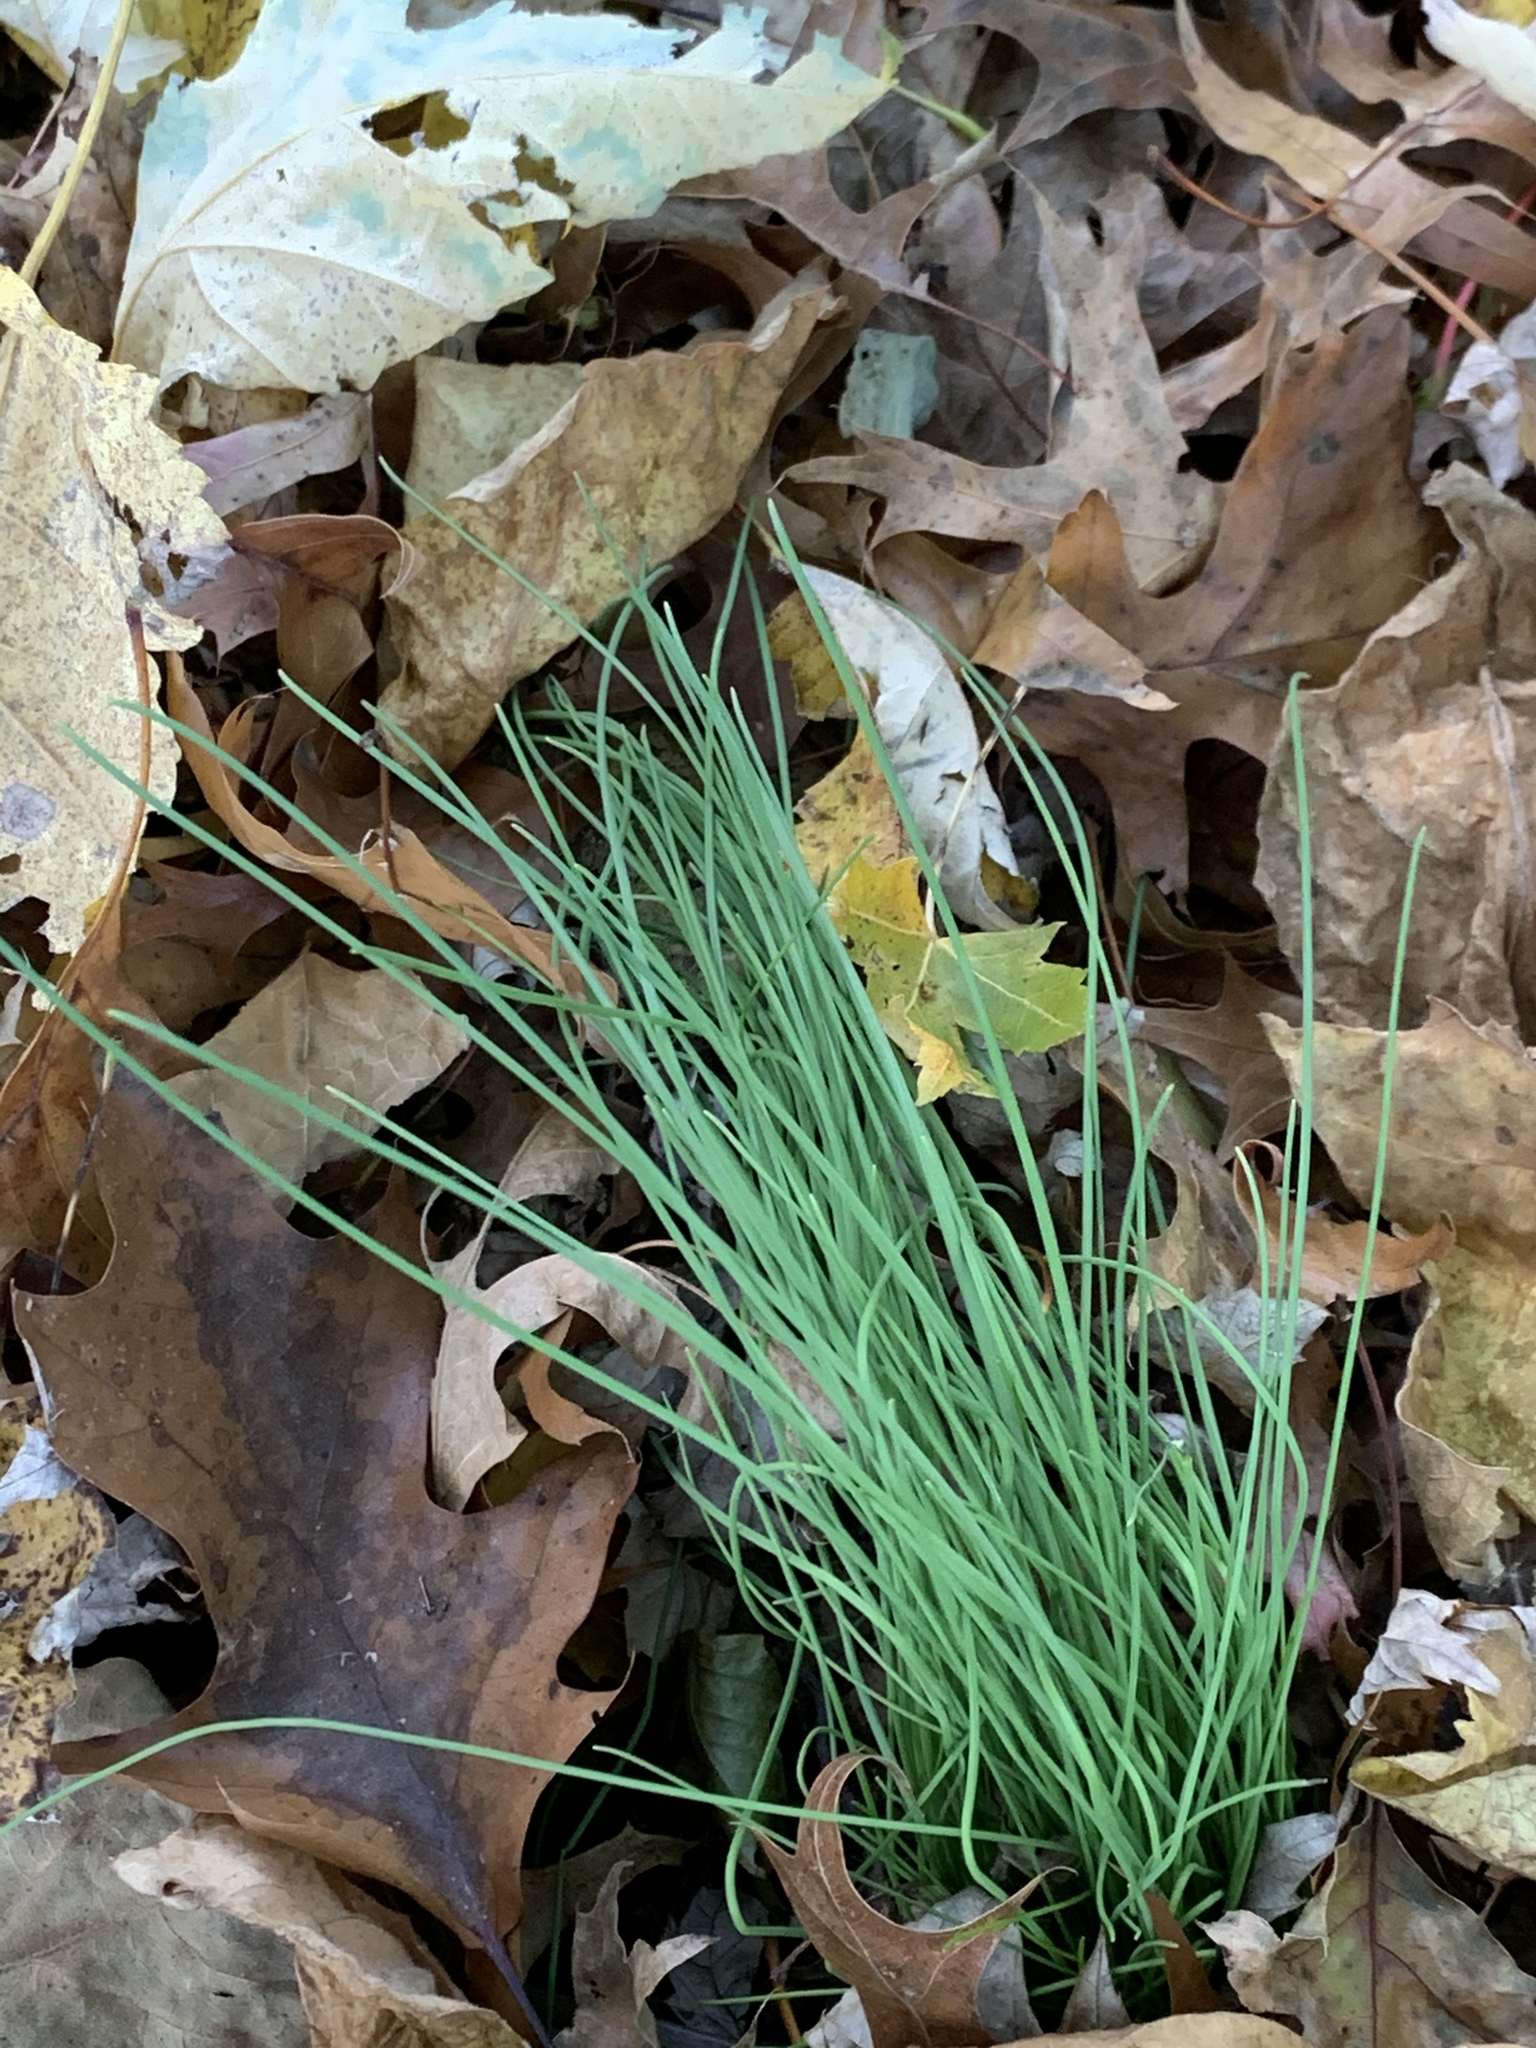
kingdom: Plantae
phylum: Tracheophyta
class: Liliopsida
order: Asparagales
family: Amaryllidaceae
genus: Allium
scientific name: Allium vineale
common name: Crow garlic
